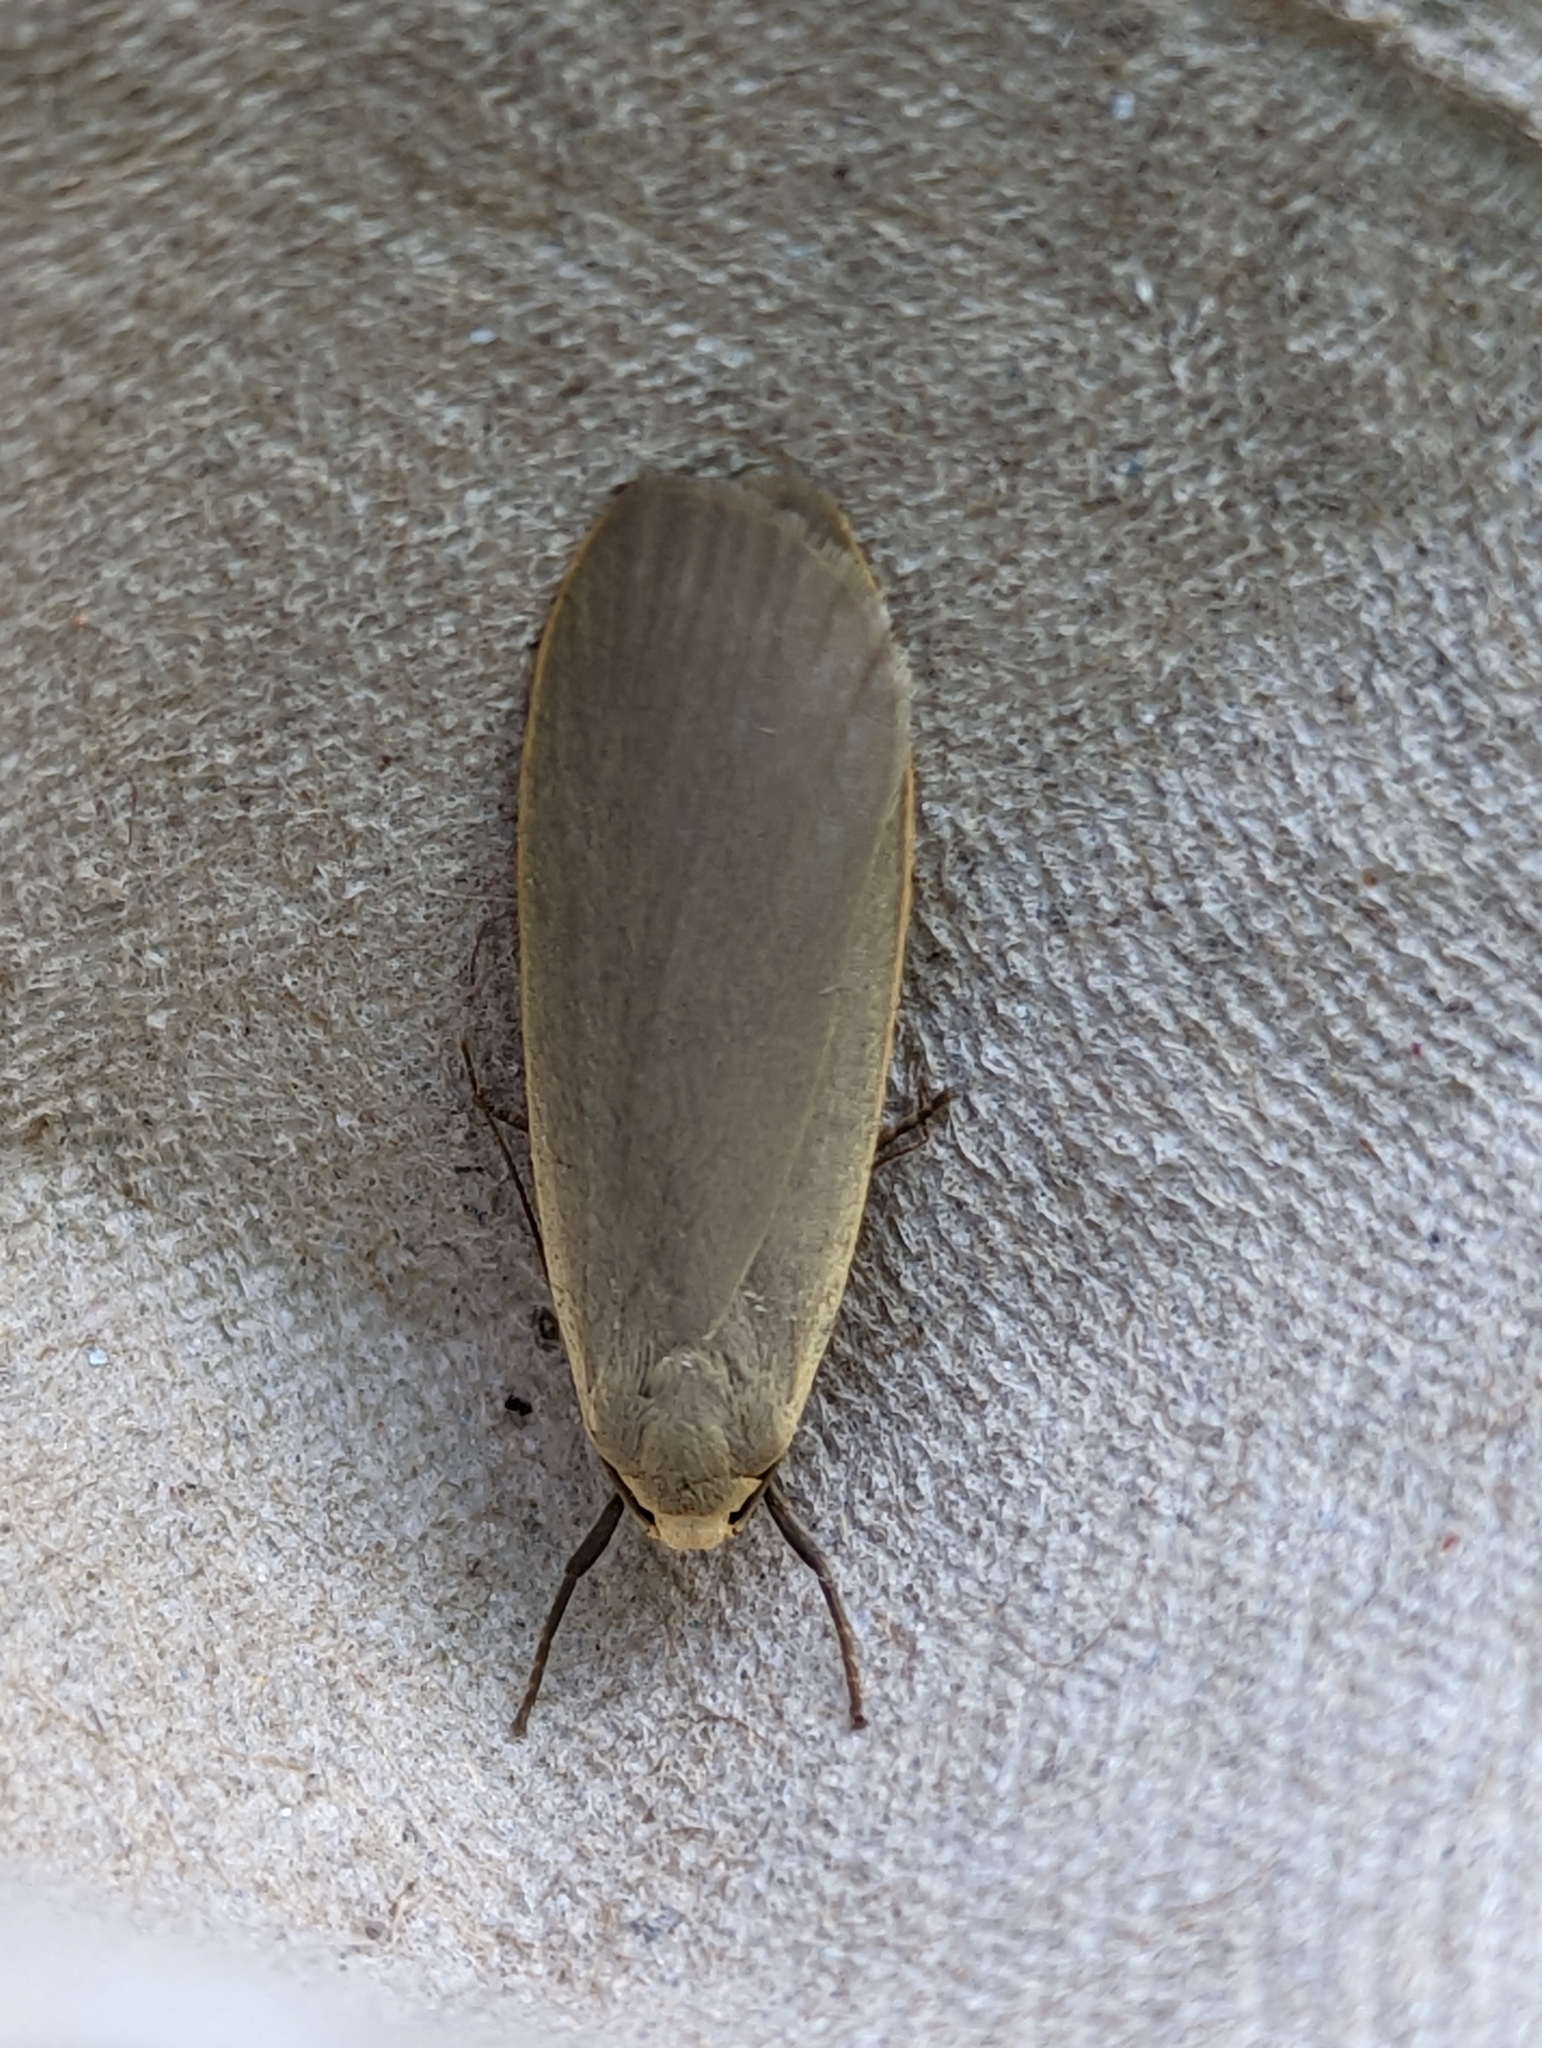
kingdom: Animalia
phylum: Arthropoda
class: Insecta
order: Lepidoptera
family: Erebidae
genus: Collita
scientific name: Collita griseola
